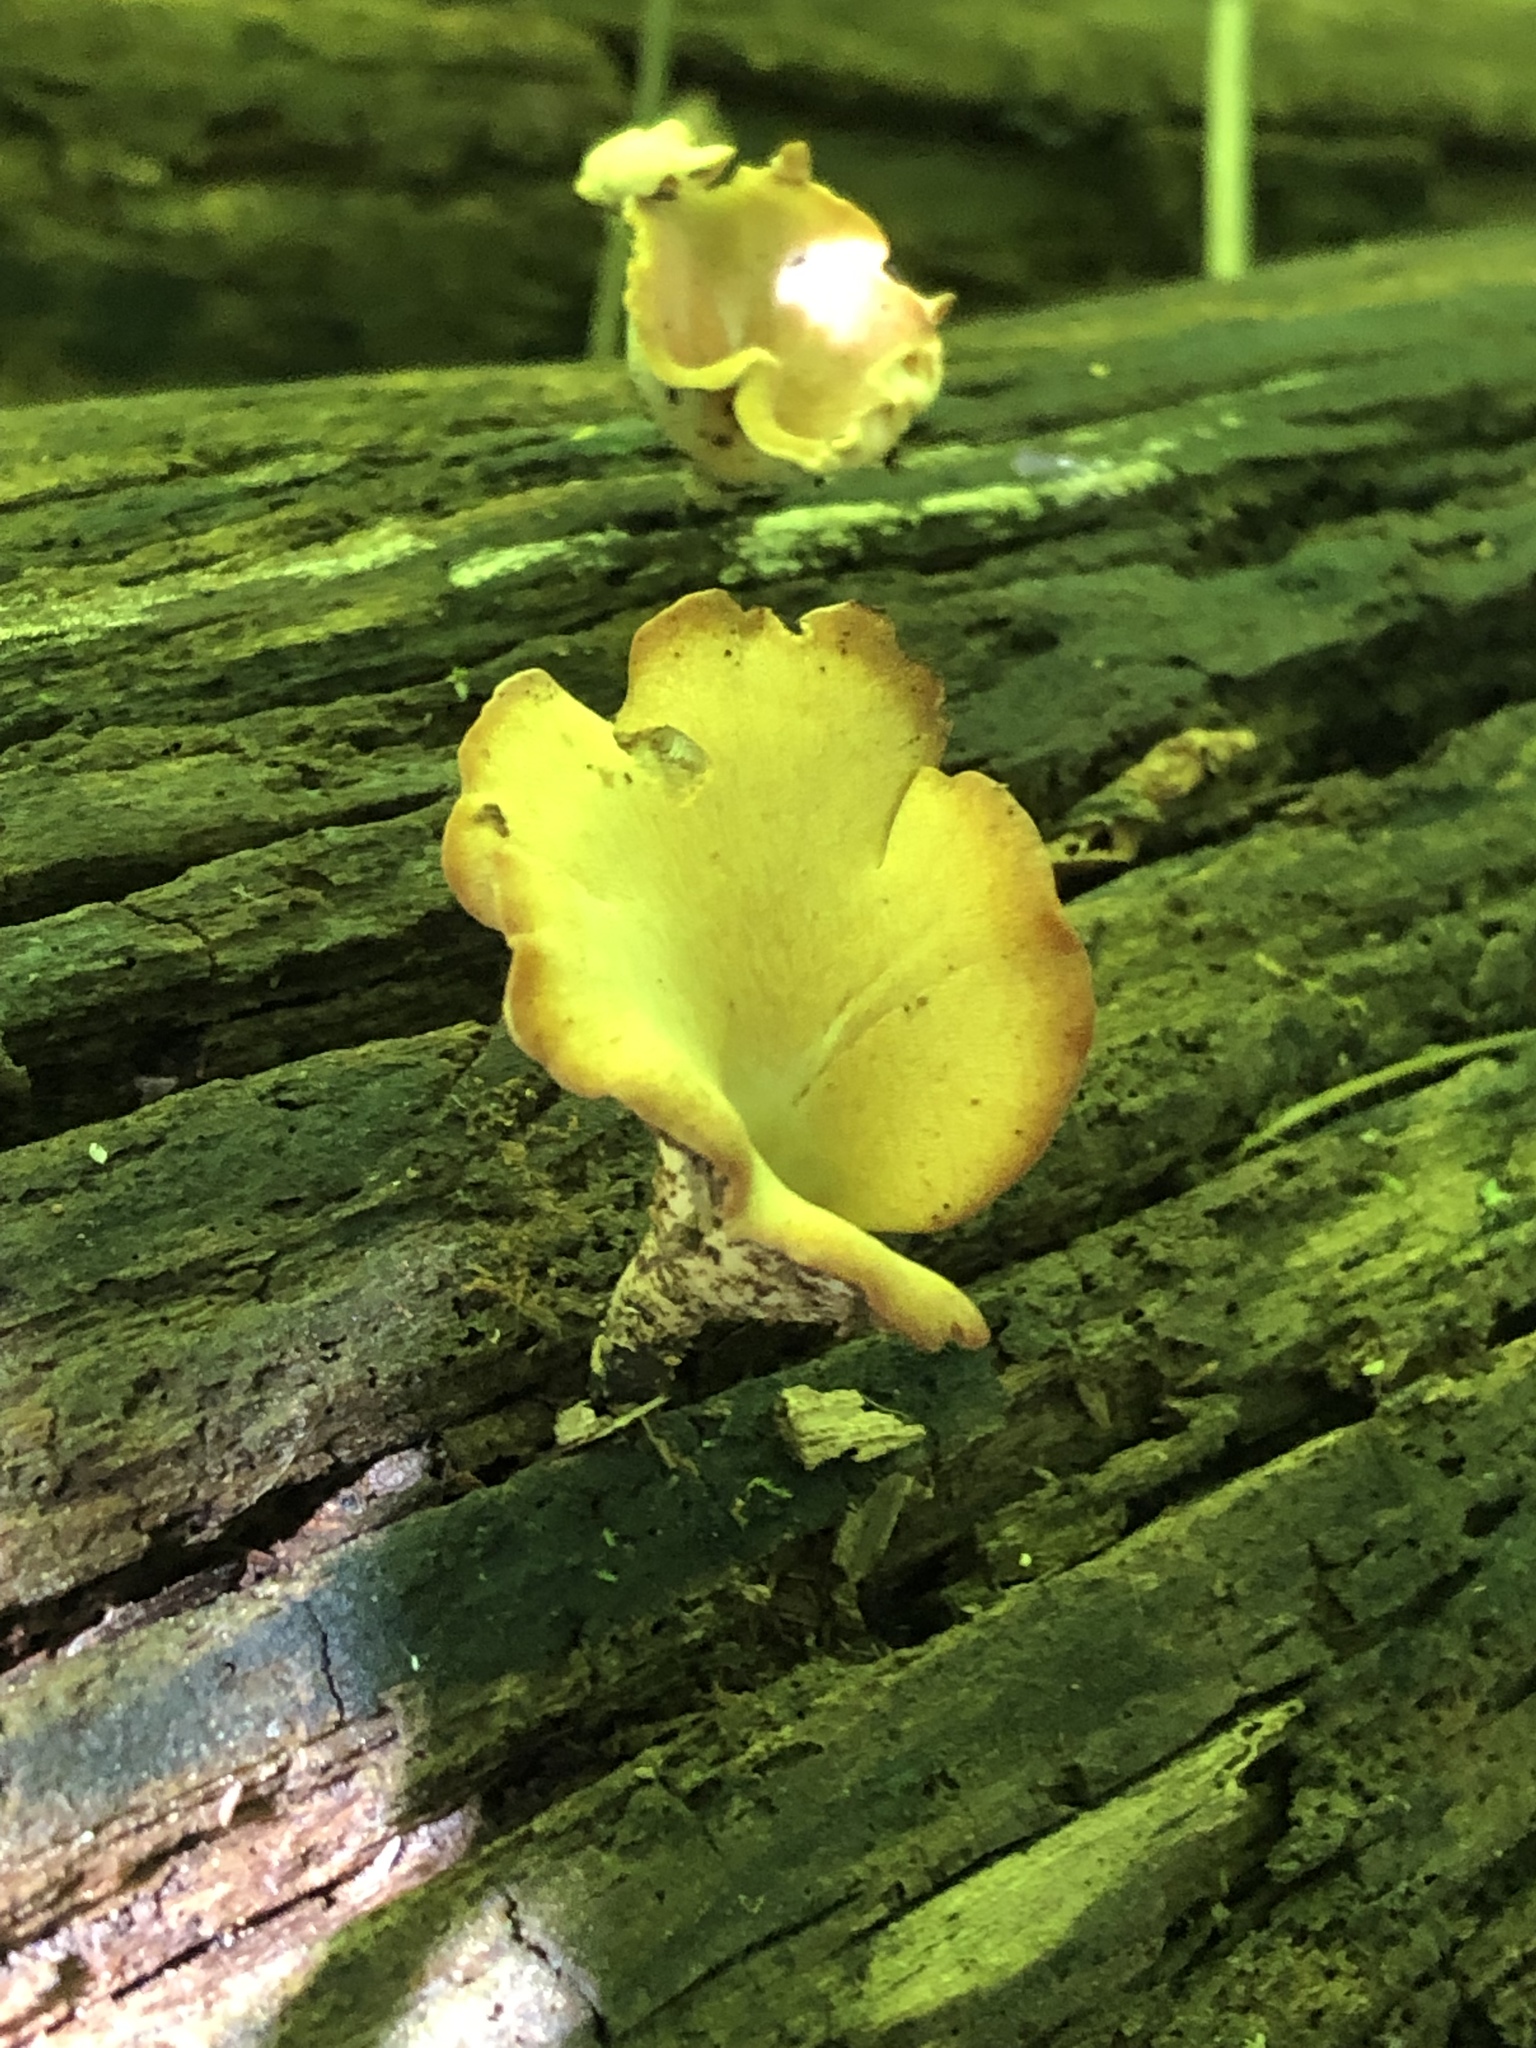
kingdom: Fungi
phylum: Basidiomycota
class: Agaricomycetes
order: Polyporales
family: Polyporaceae
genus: Cerioporus
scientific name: Cerioporus leptocephalus
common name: Blackfoot polypore
